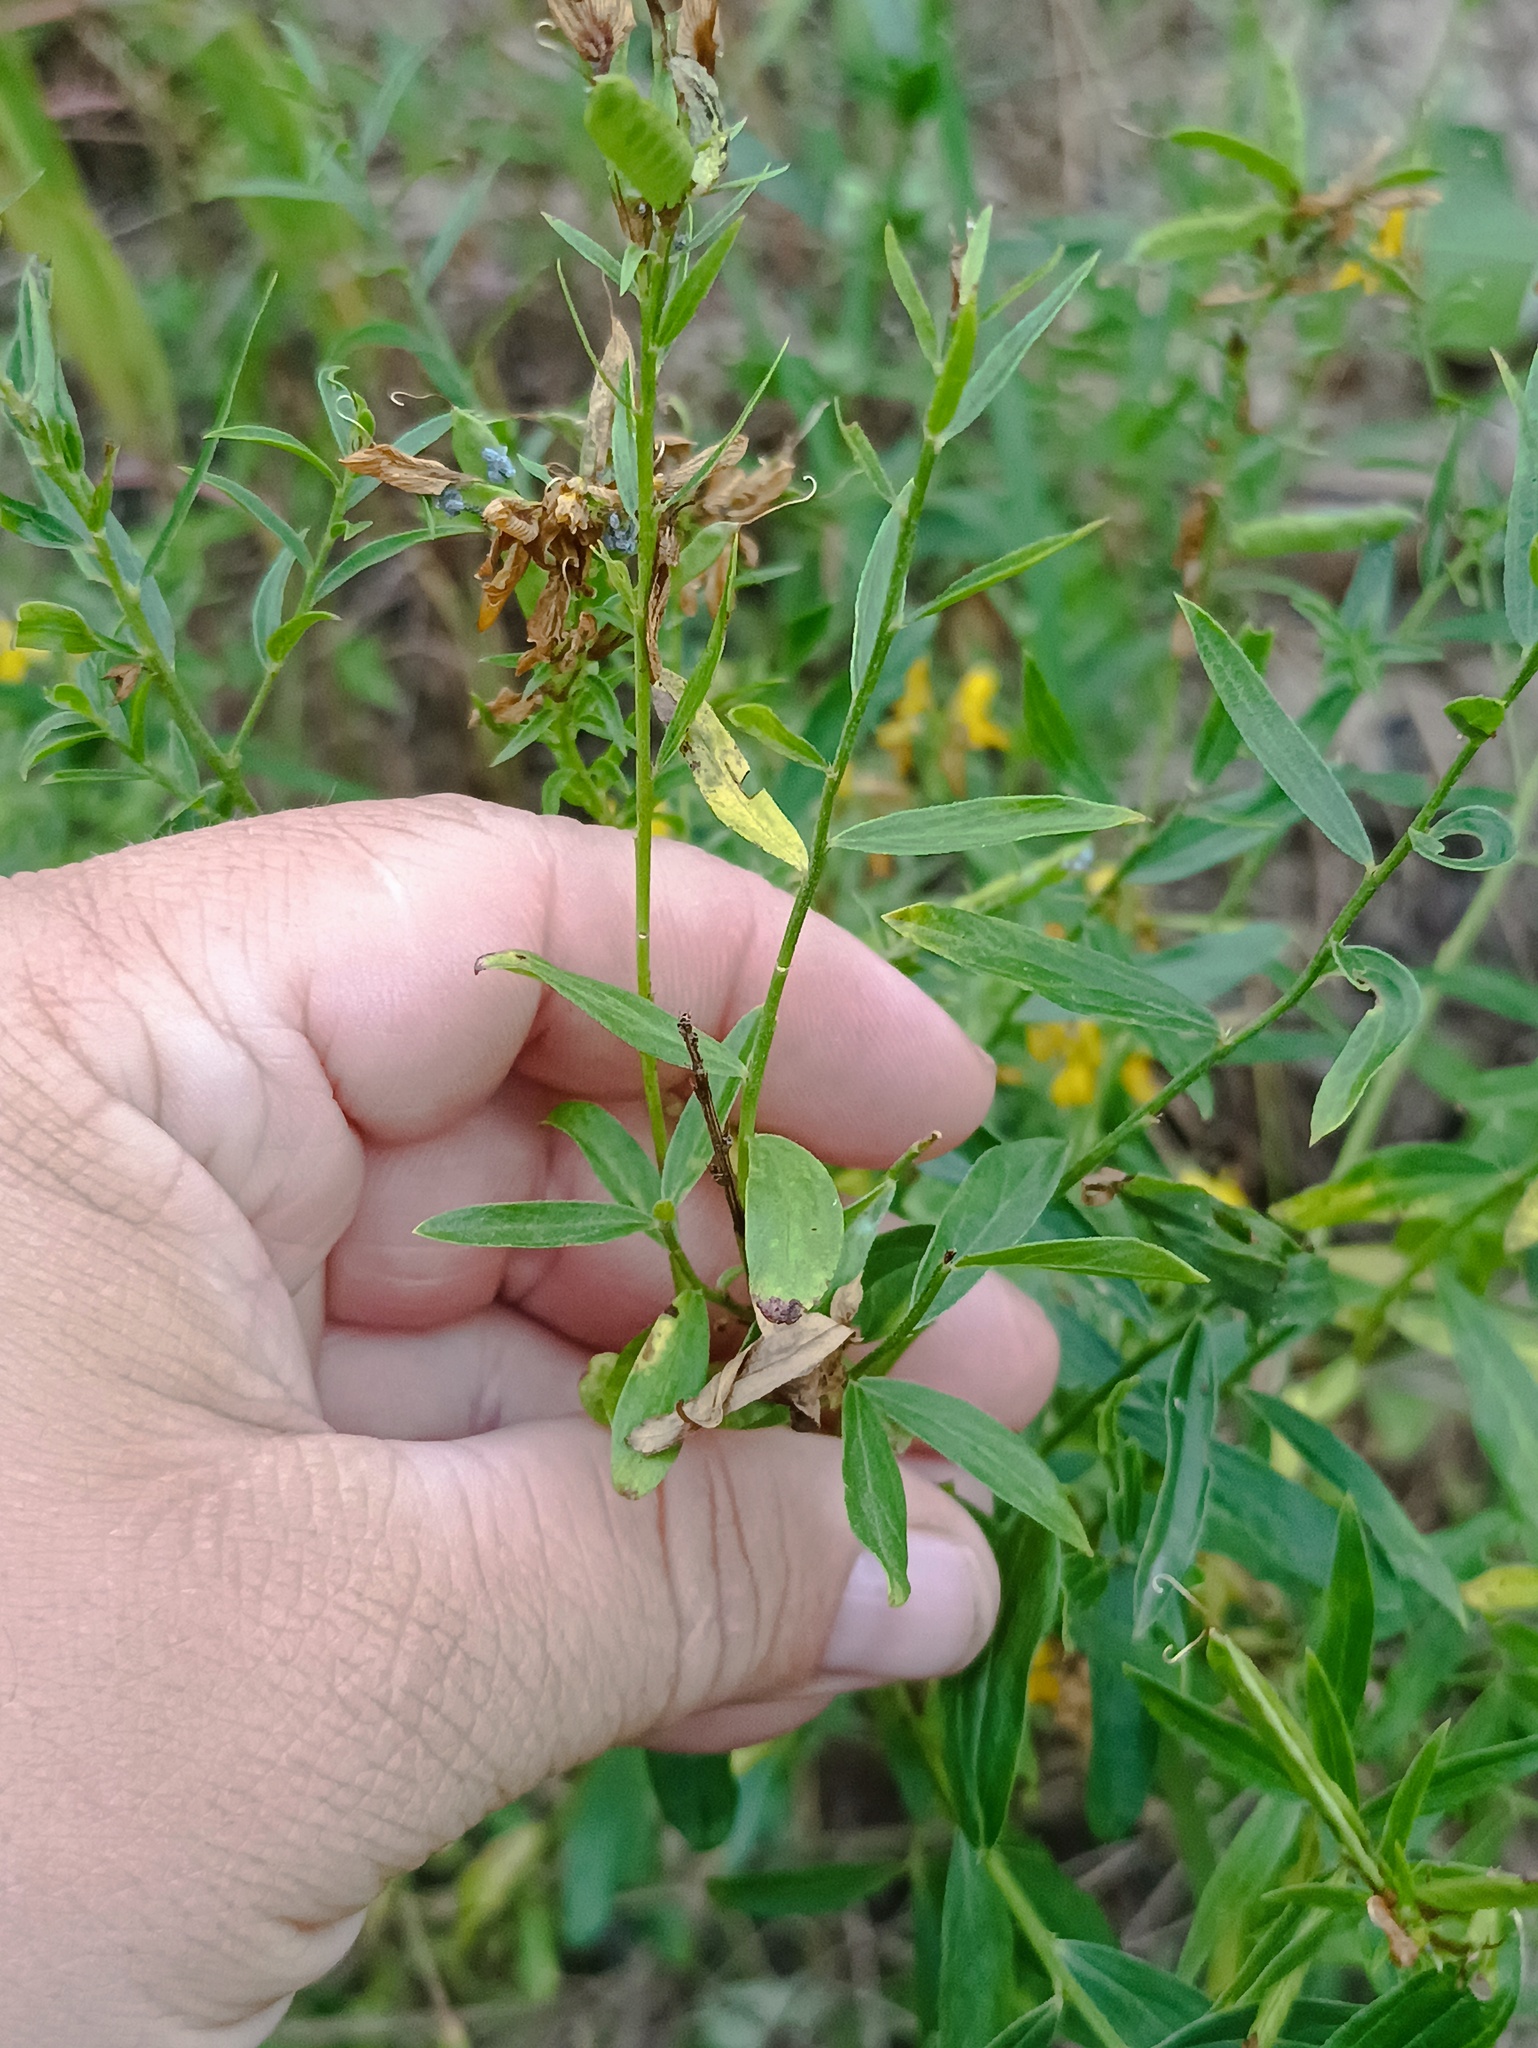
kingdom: Plantae
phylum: Tracheophyta
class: Magnoliopsida
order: Fabales
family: Fabaceae
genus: Genista
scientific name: Genista tinctoria
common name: Dyer's greenweed
